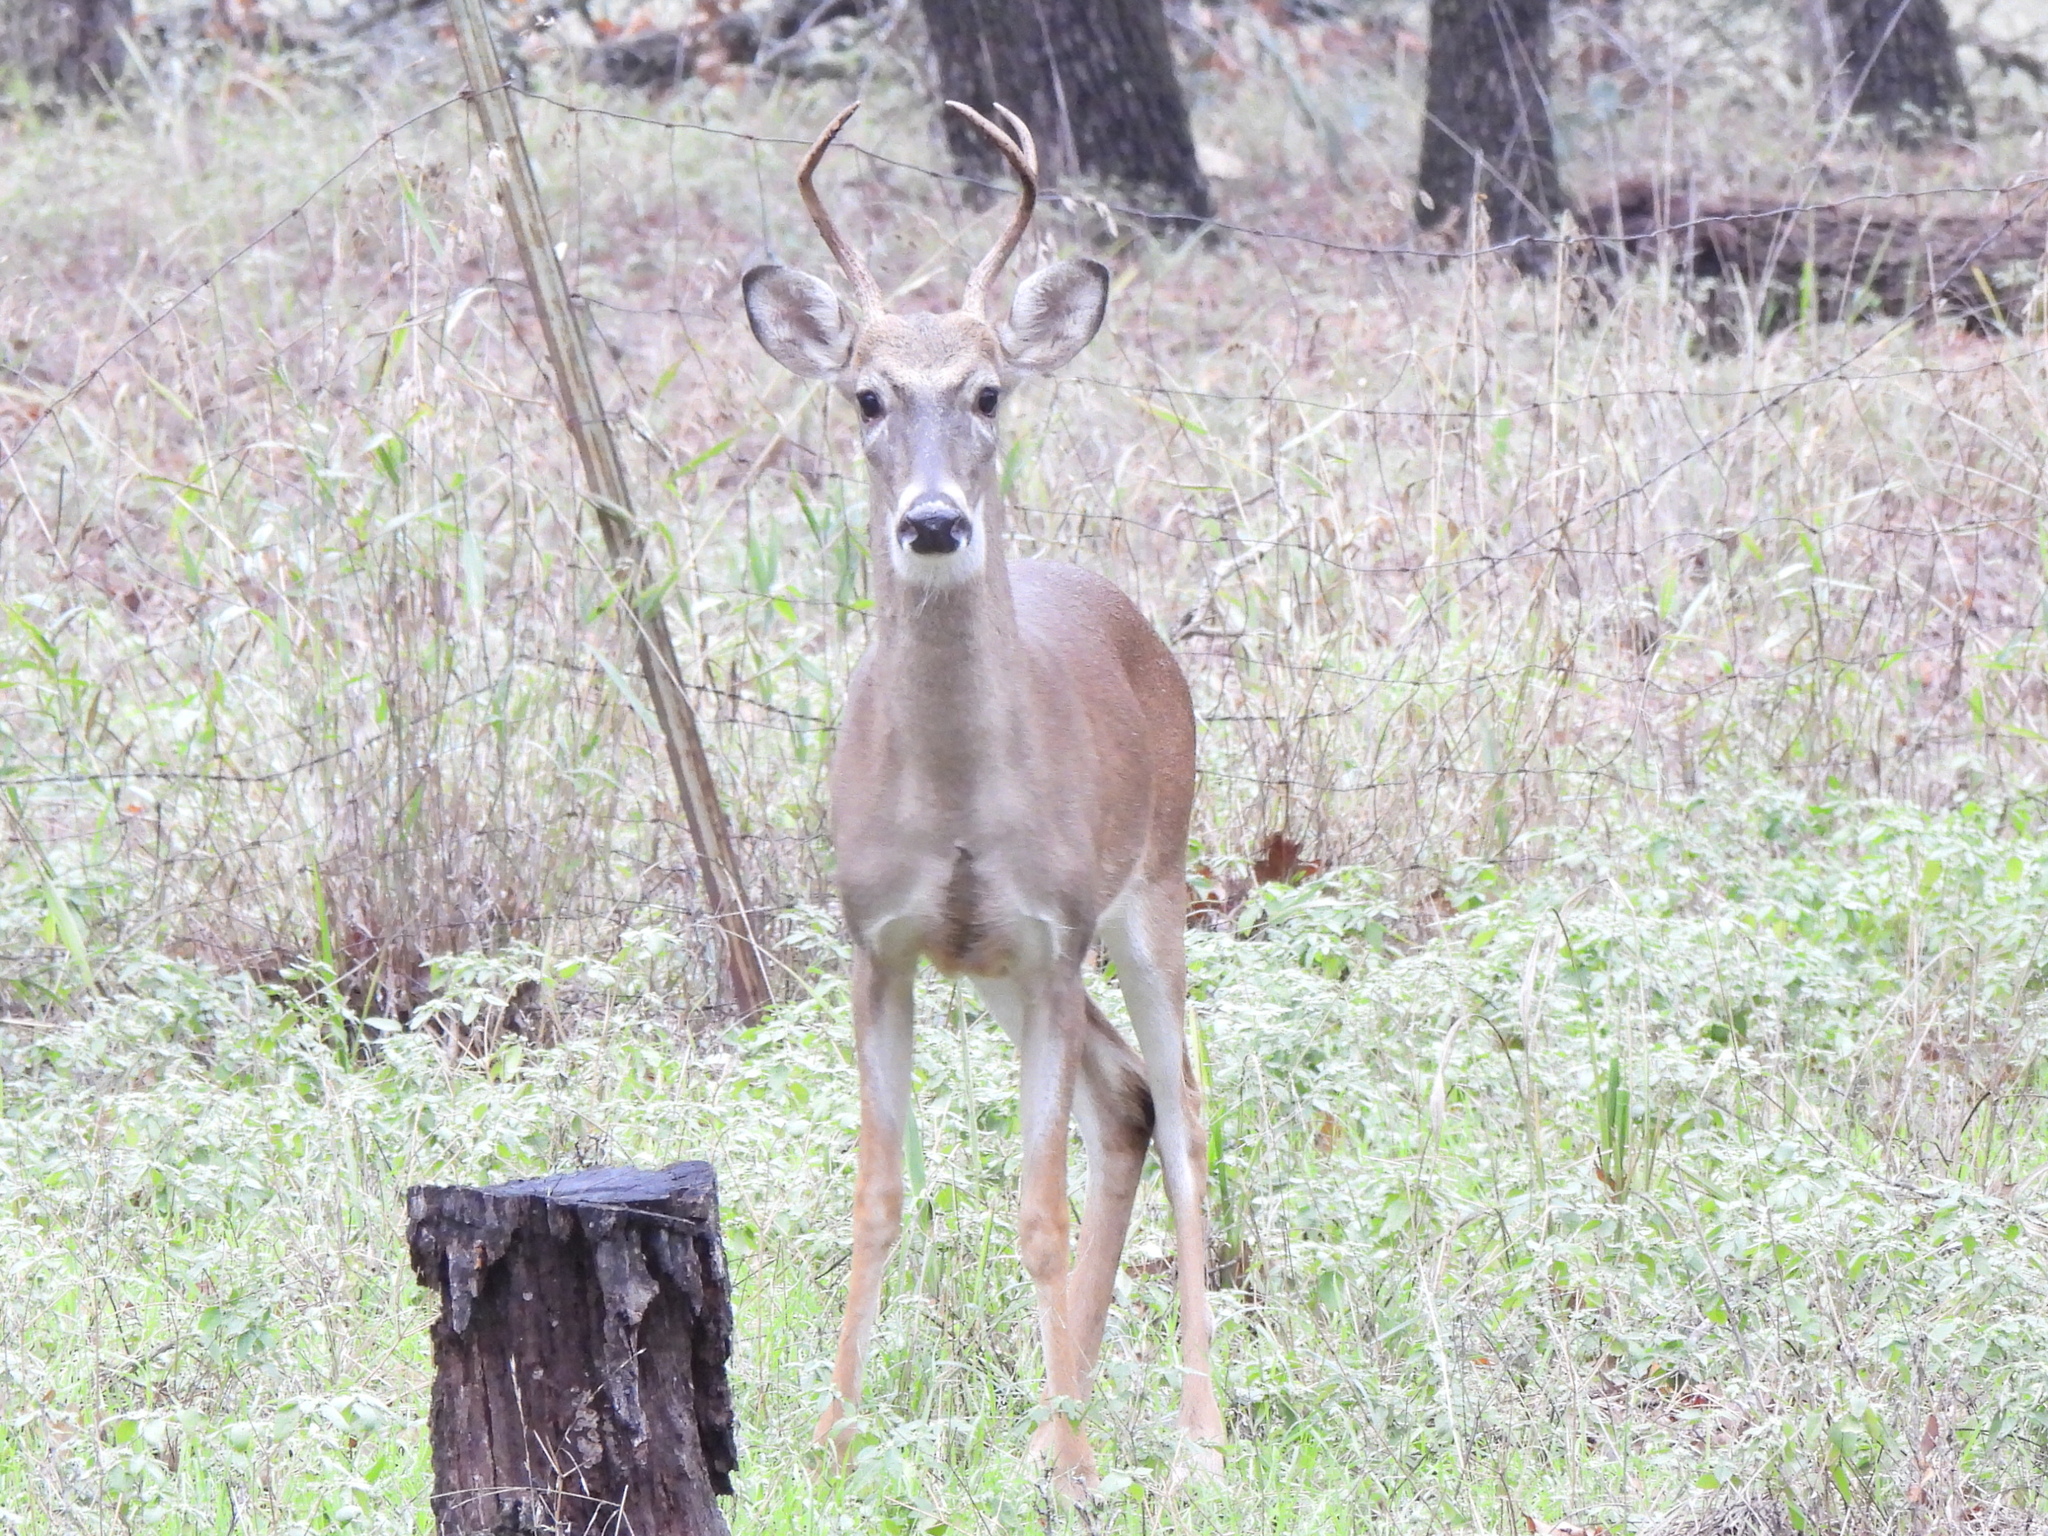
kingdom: Animalia
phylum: Chordata
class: Mammalia
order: Artiodactyla
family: Cervidae
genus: Odocoileus
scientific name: Odocoileus virginianus
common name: White-tailed deer
